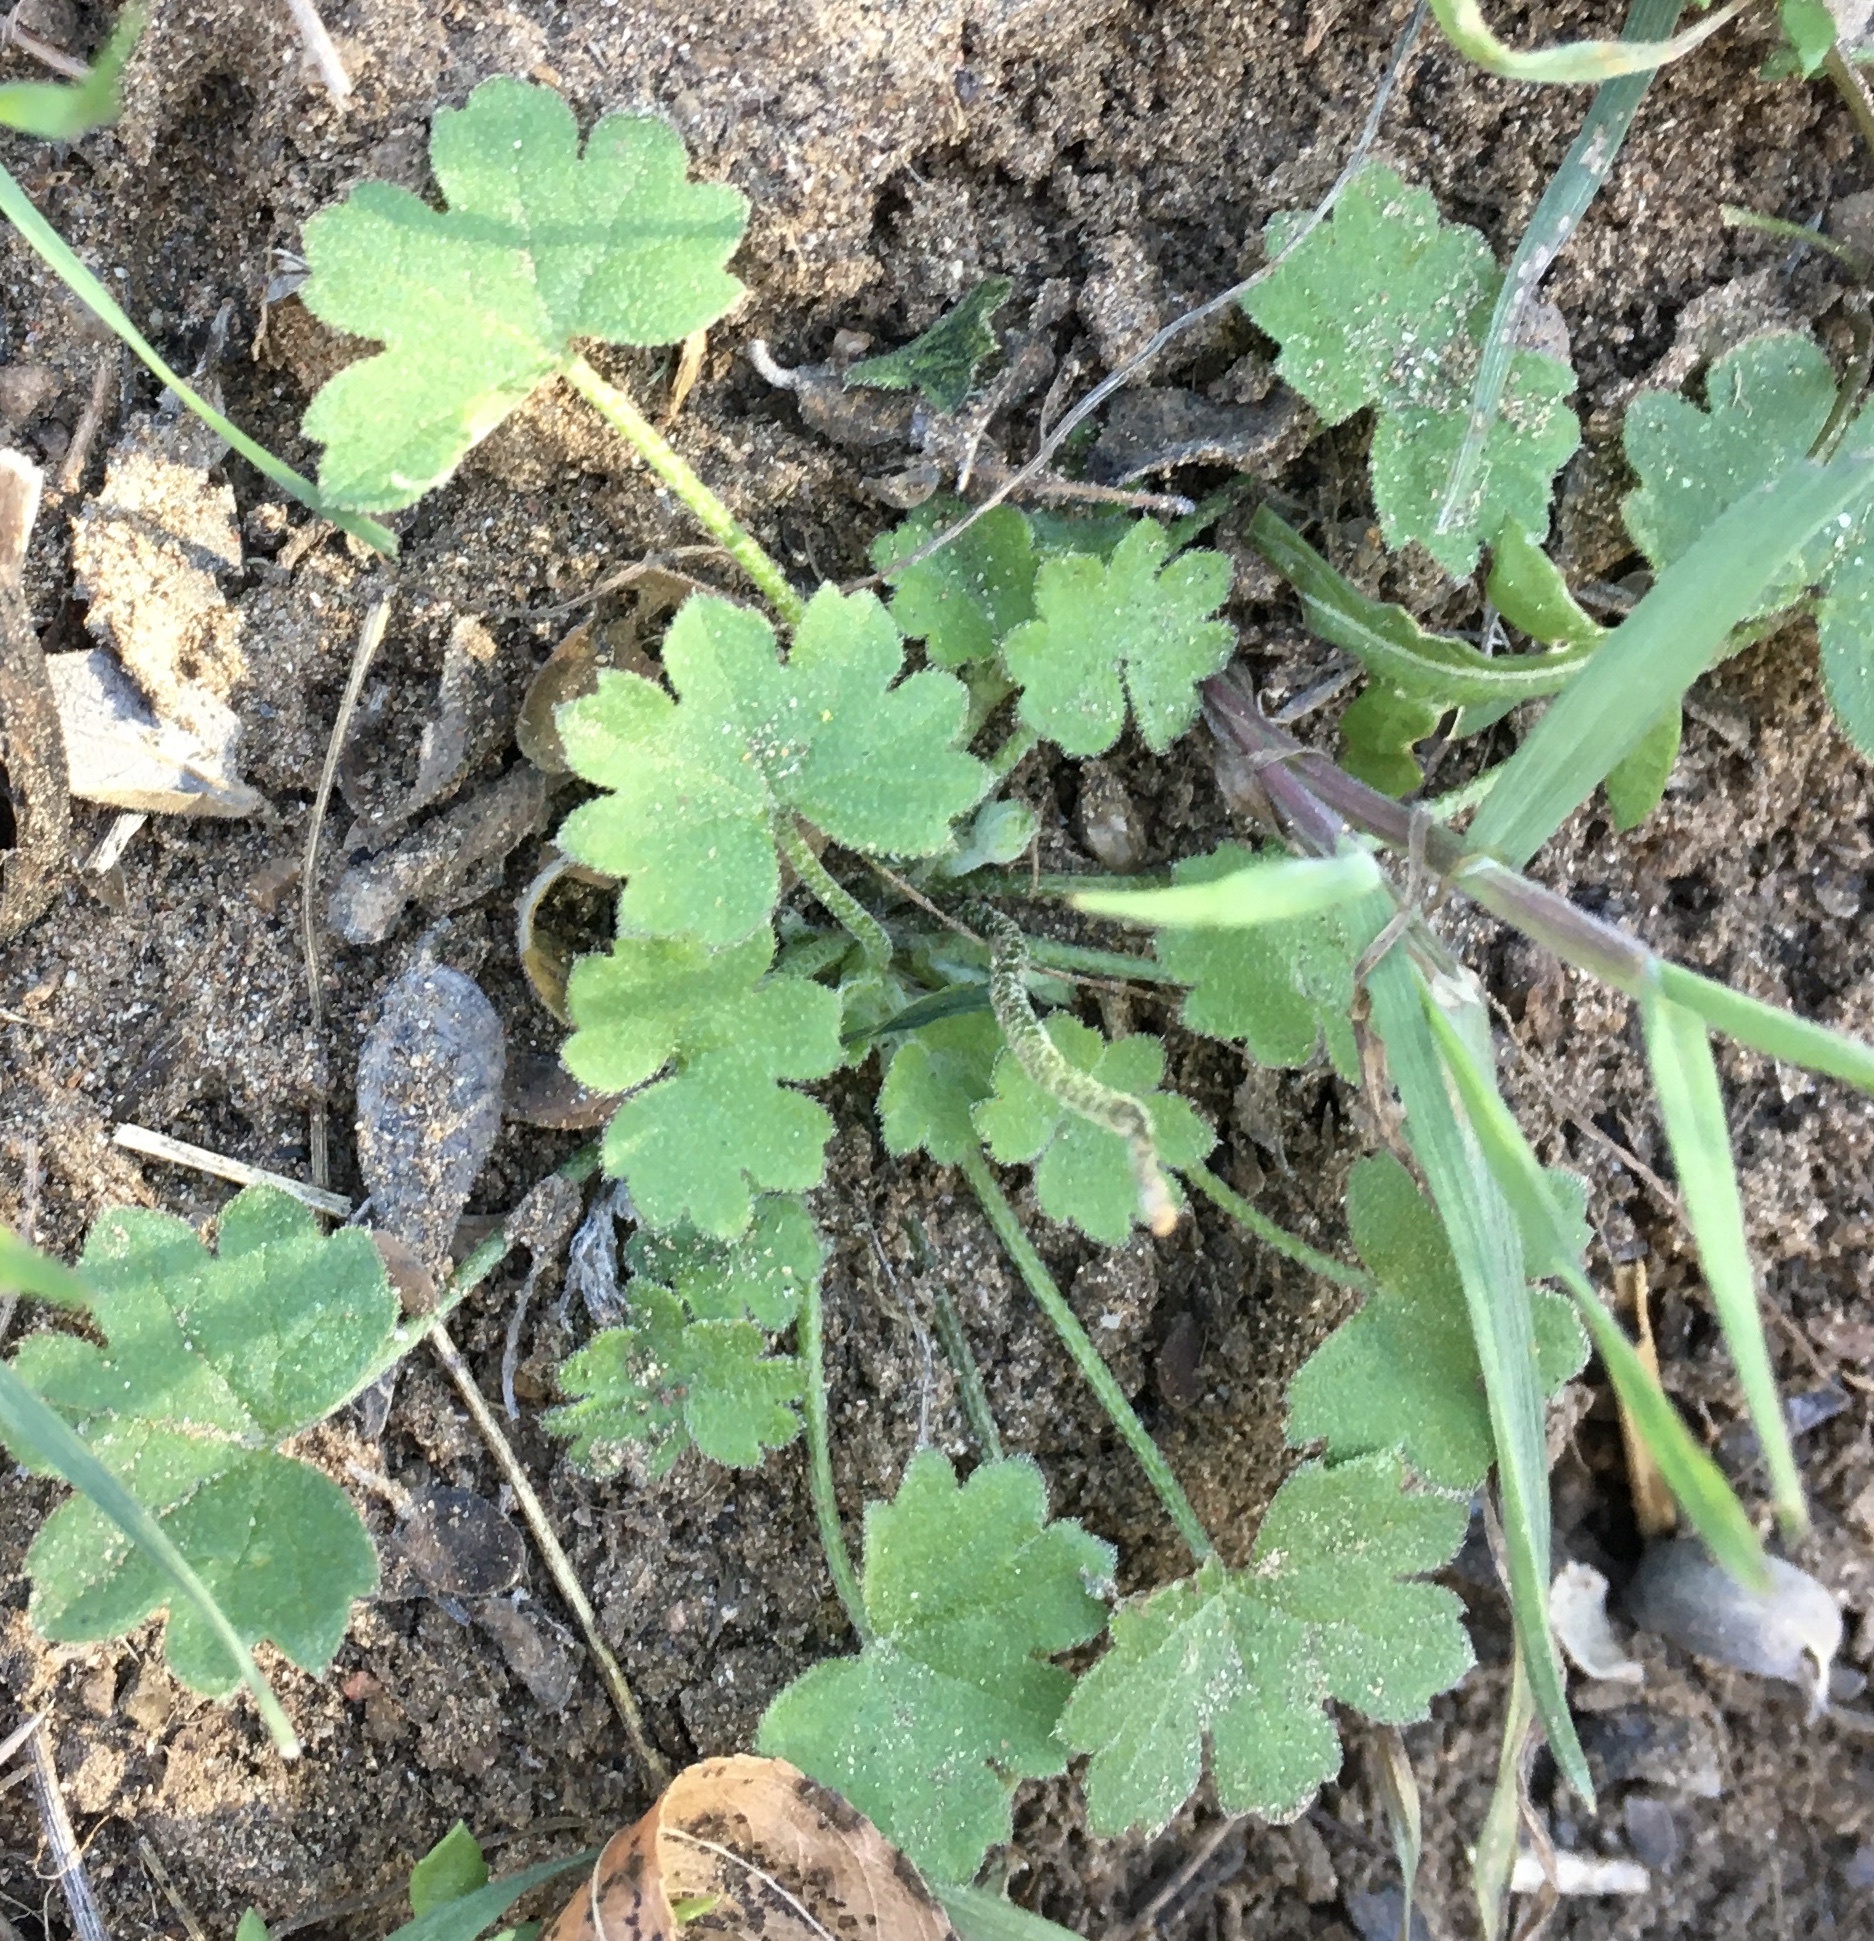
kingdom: Plantae
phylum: Tracheophyta
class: Magnoliopsida
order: Apiales
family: Apiaceae
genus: Bowlesia
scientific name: Bowlesia incana
